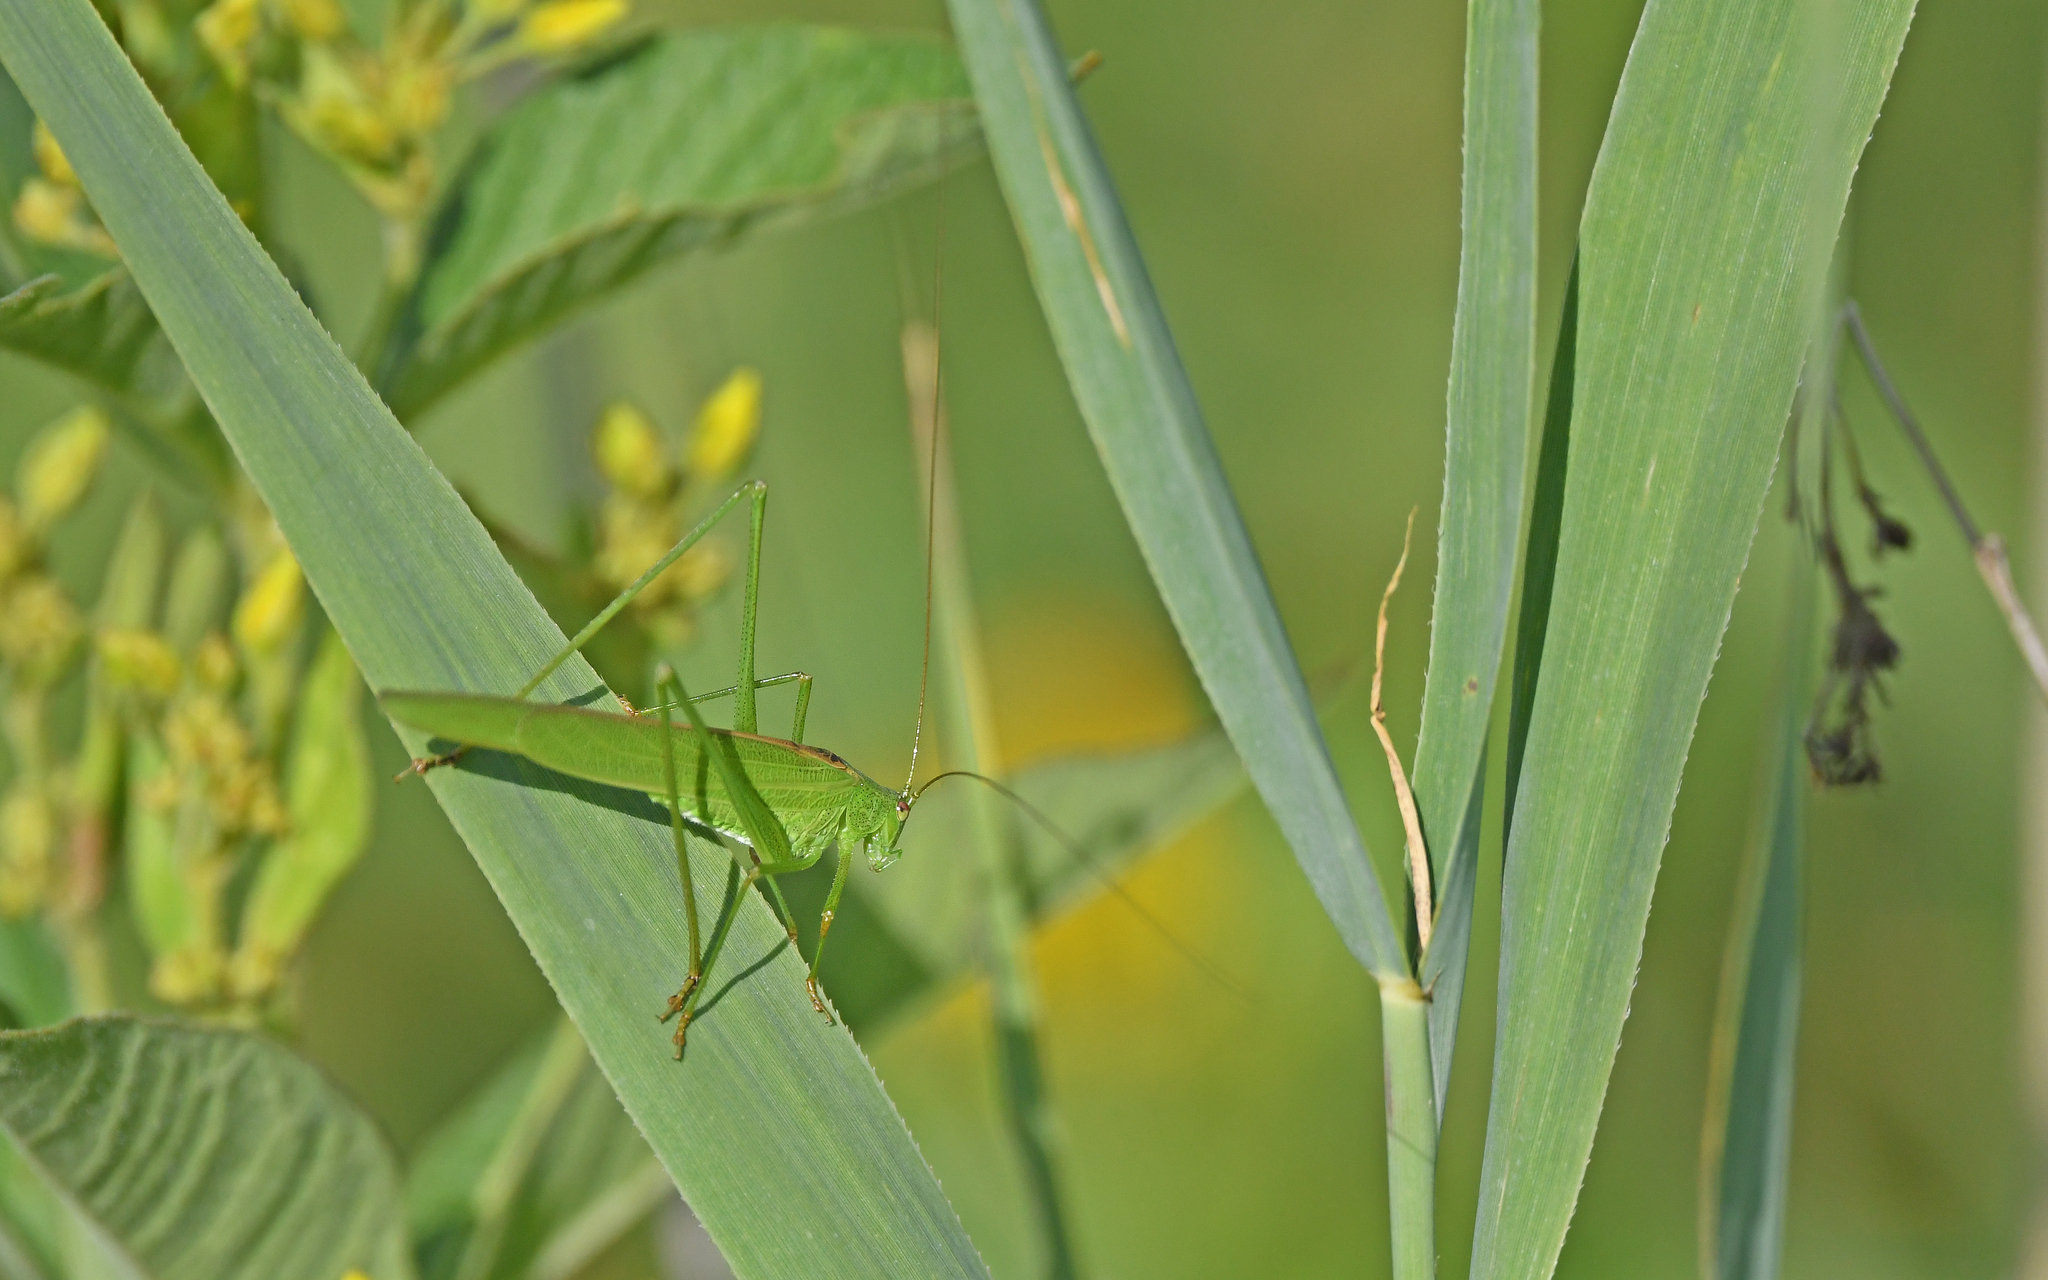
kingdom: Animalia
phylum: Arthropoda
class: Insecta
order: Orthoptera
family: Tettigoniidae
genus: Phaneroptera
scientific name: Phaneroptera falcata
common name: Sickle-bearing bush-cricket
